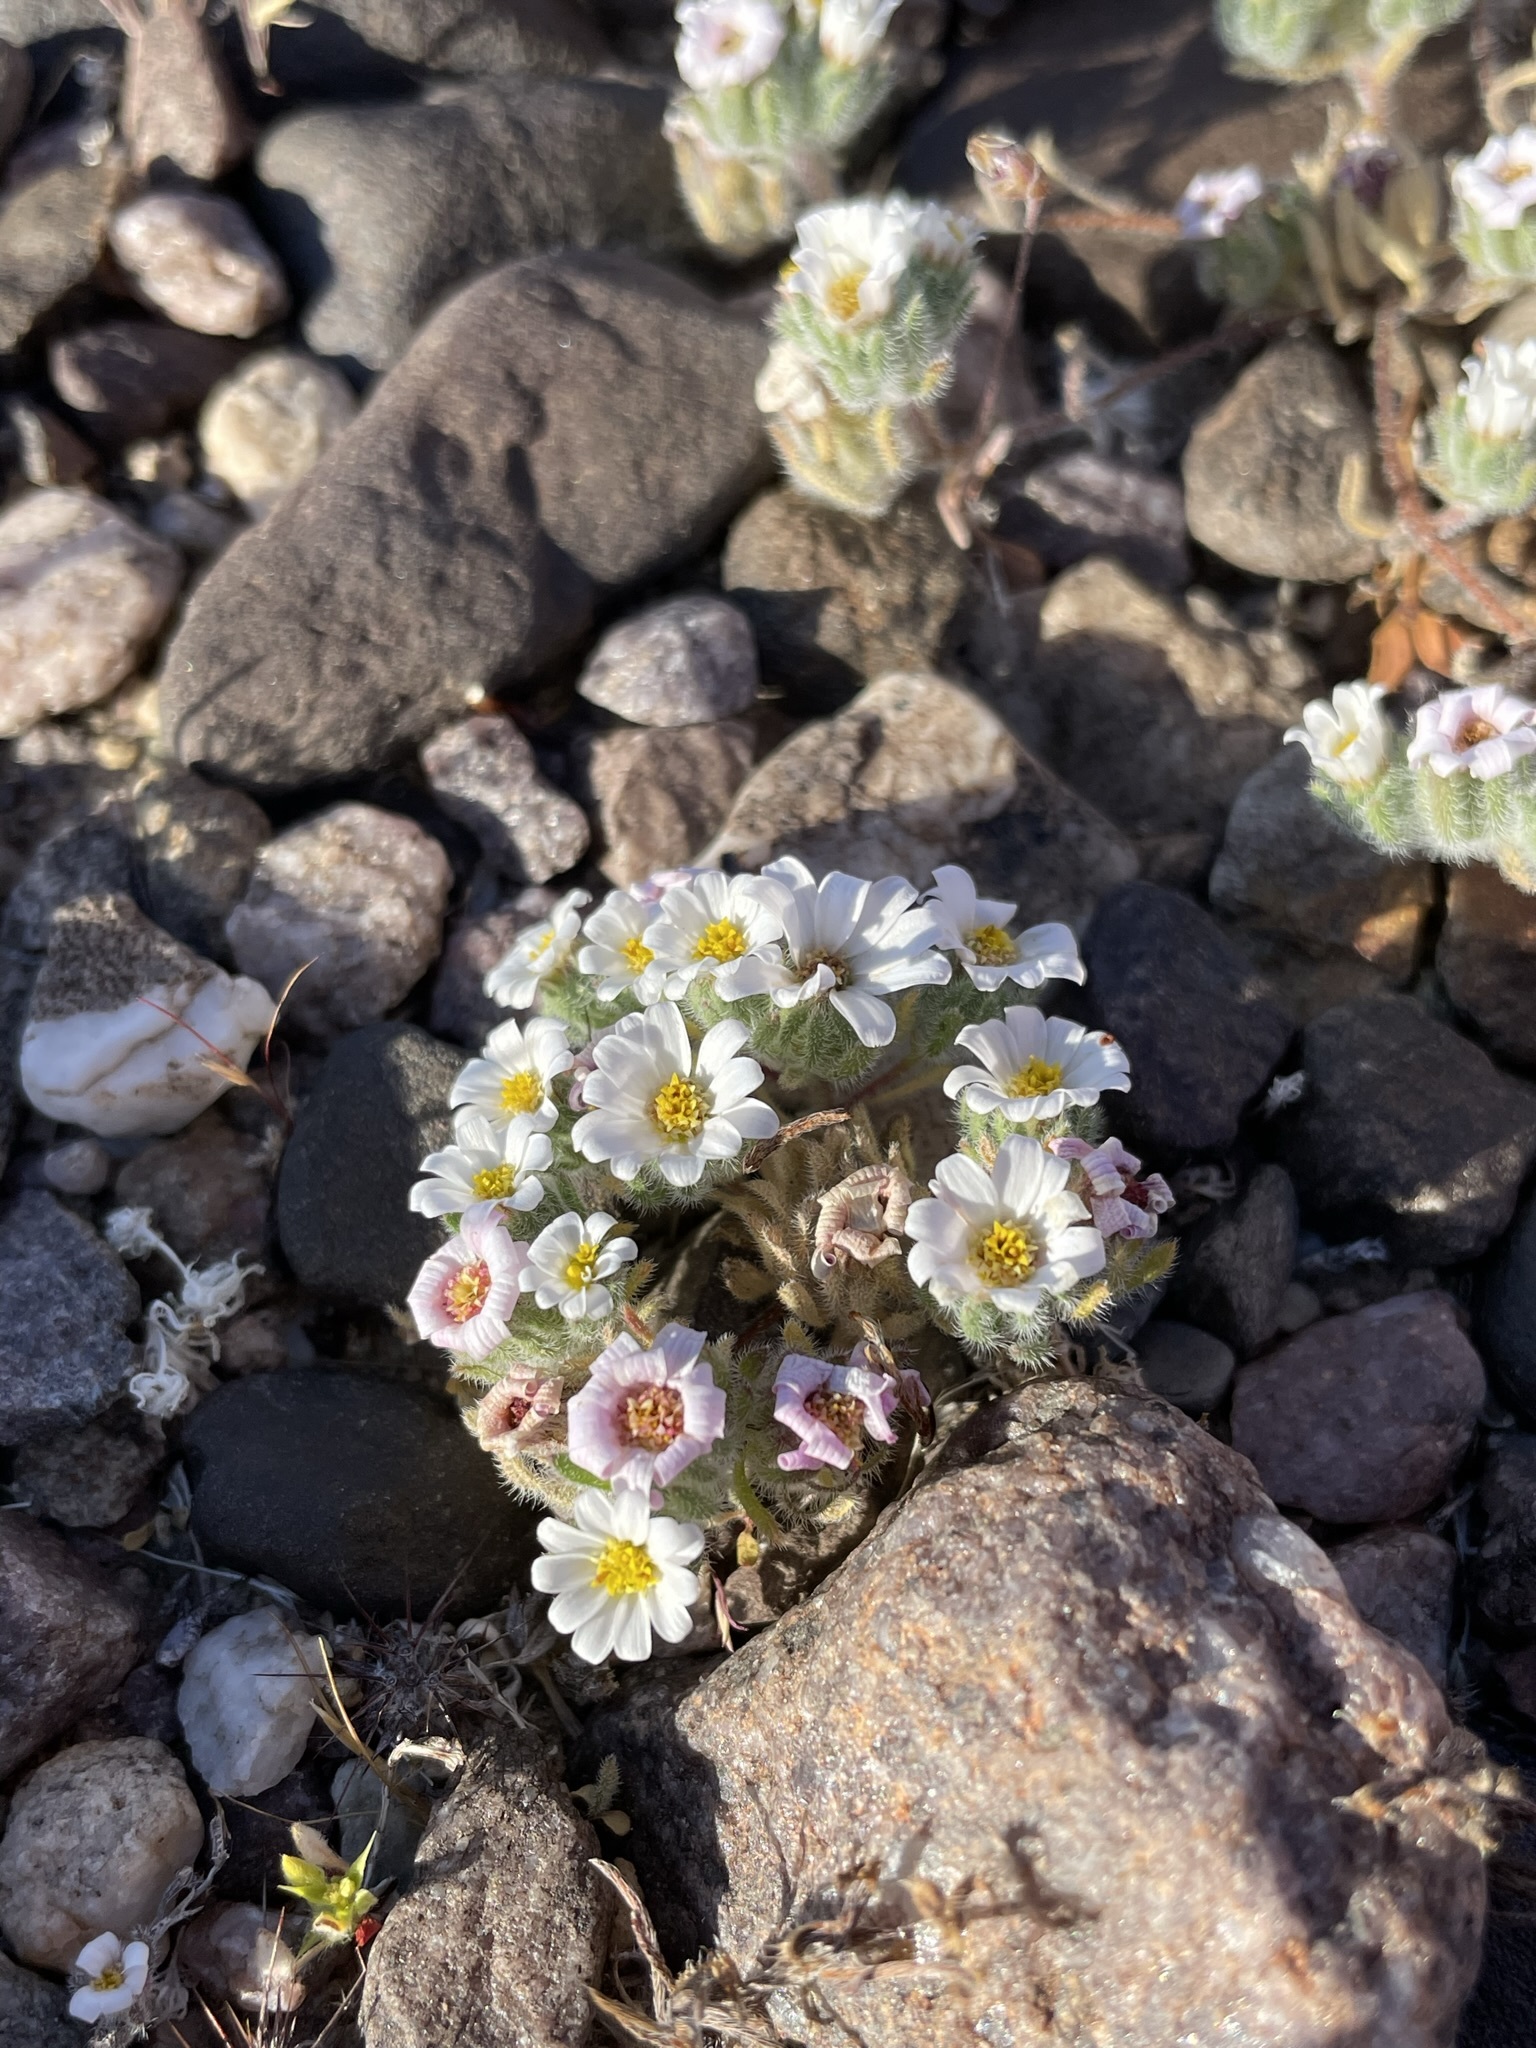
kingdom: Plantae
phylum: Tracheophyta
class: Magnoliopsida
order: Asterales
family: Asteraceae
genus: Monoptilon
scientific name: Monoptilon bellioides
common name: Bristly desertstar
